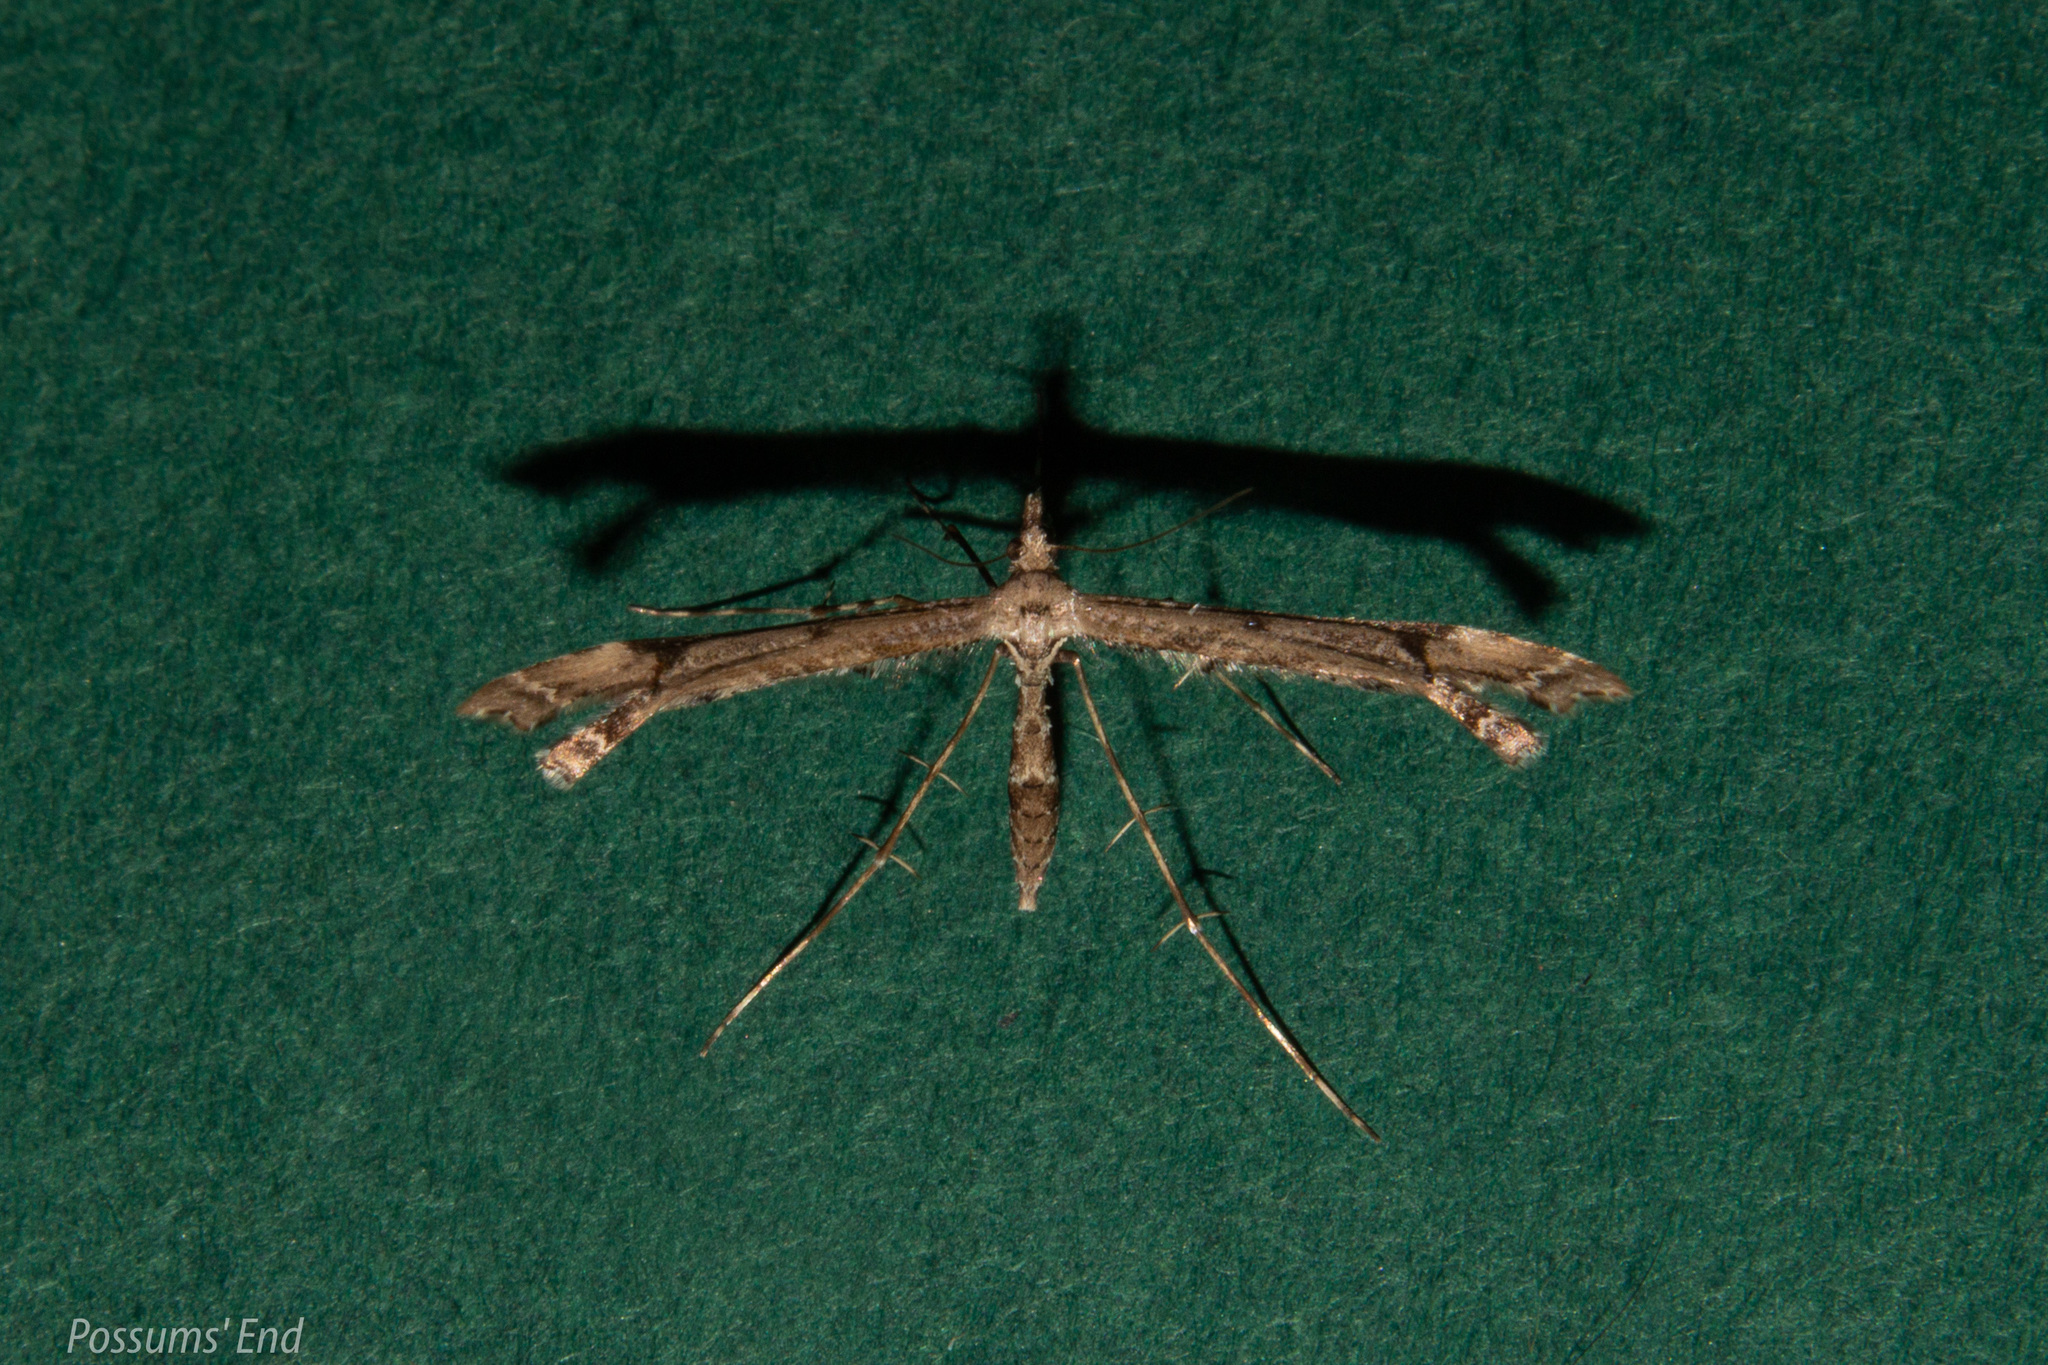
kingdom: Animalia
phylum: Arthropoda
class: Insecta
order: Lepidoptera
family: Pterophoridae
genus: Amblyptilia
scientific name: Amblyptilia repletalis
